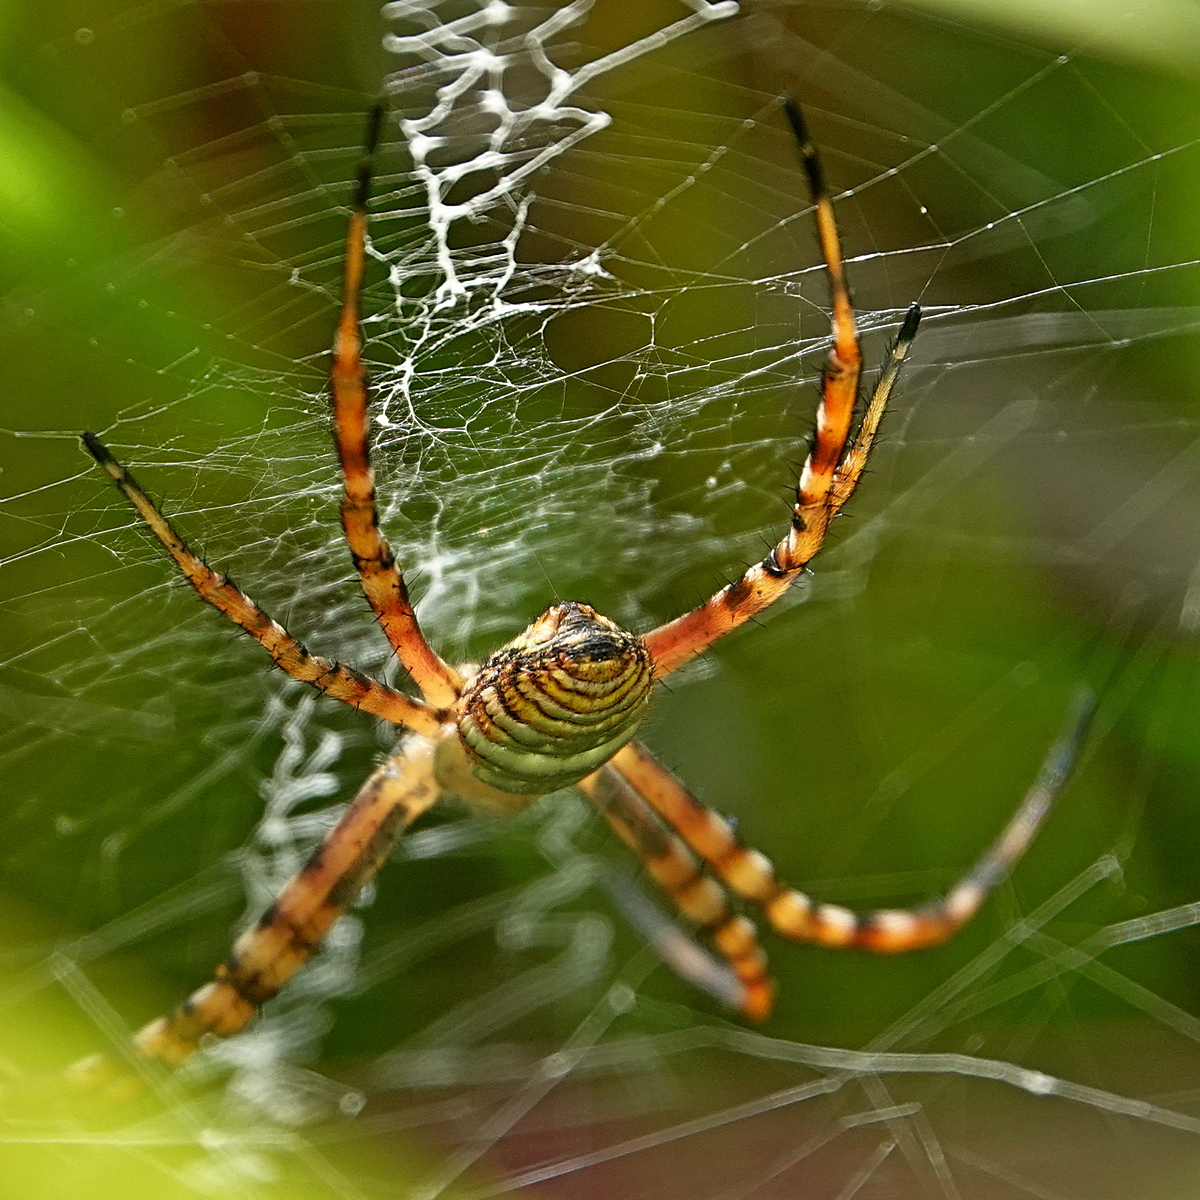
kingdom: Animalia
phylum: Arthropoda
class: Arachnida
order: Araneae
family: Araneidae
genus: Argiope
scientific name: Argiope trifasciata
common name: Banded garden spider
